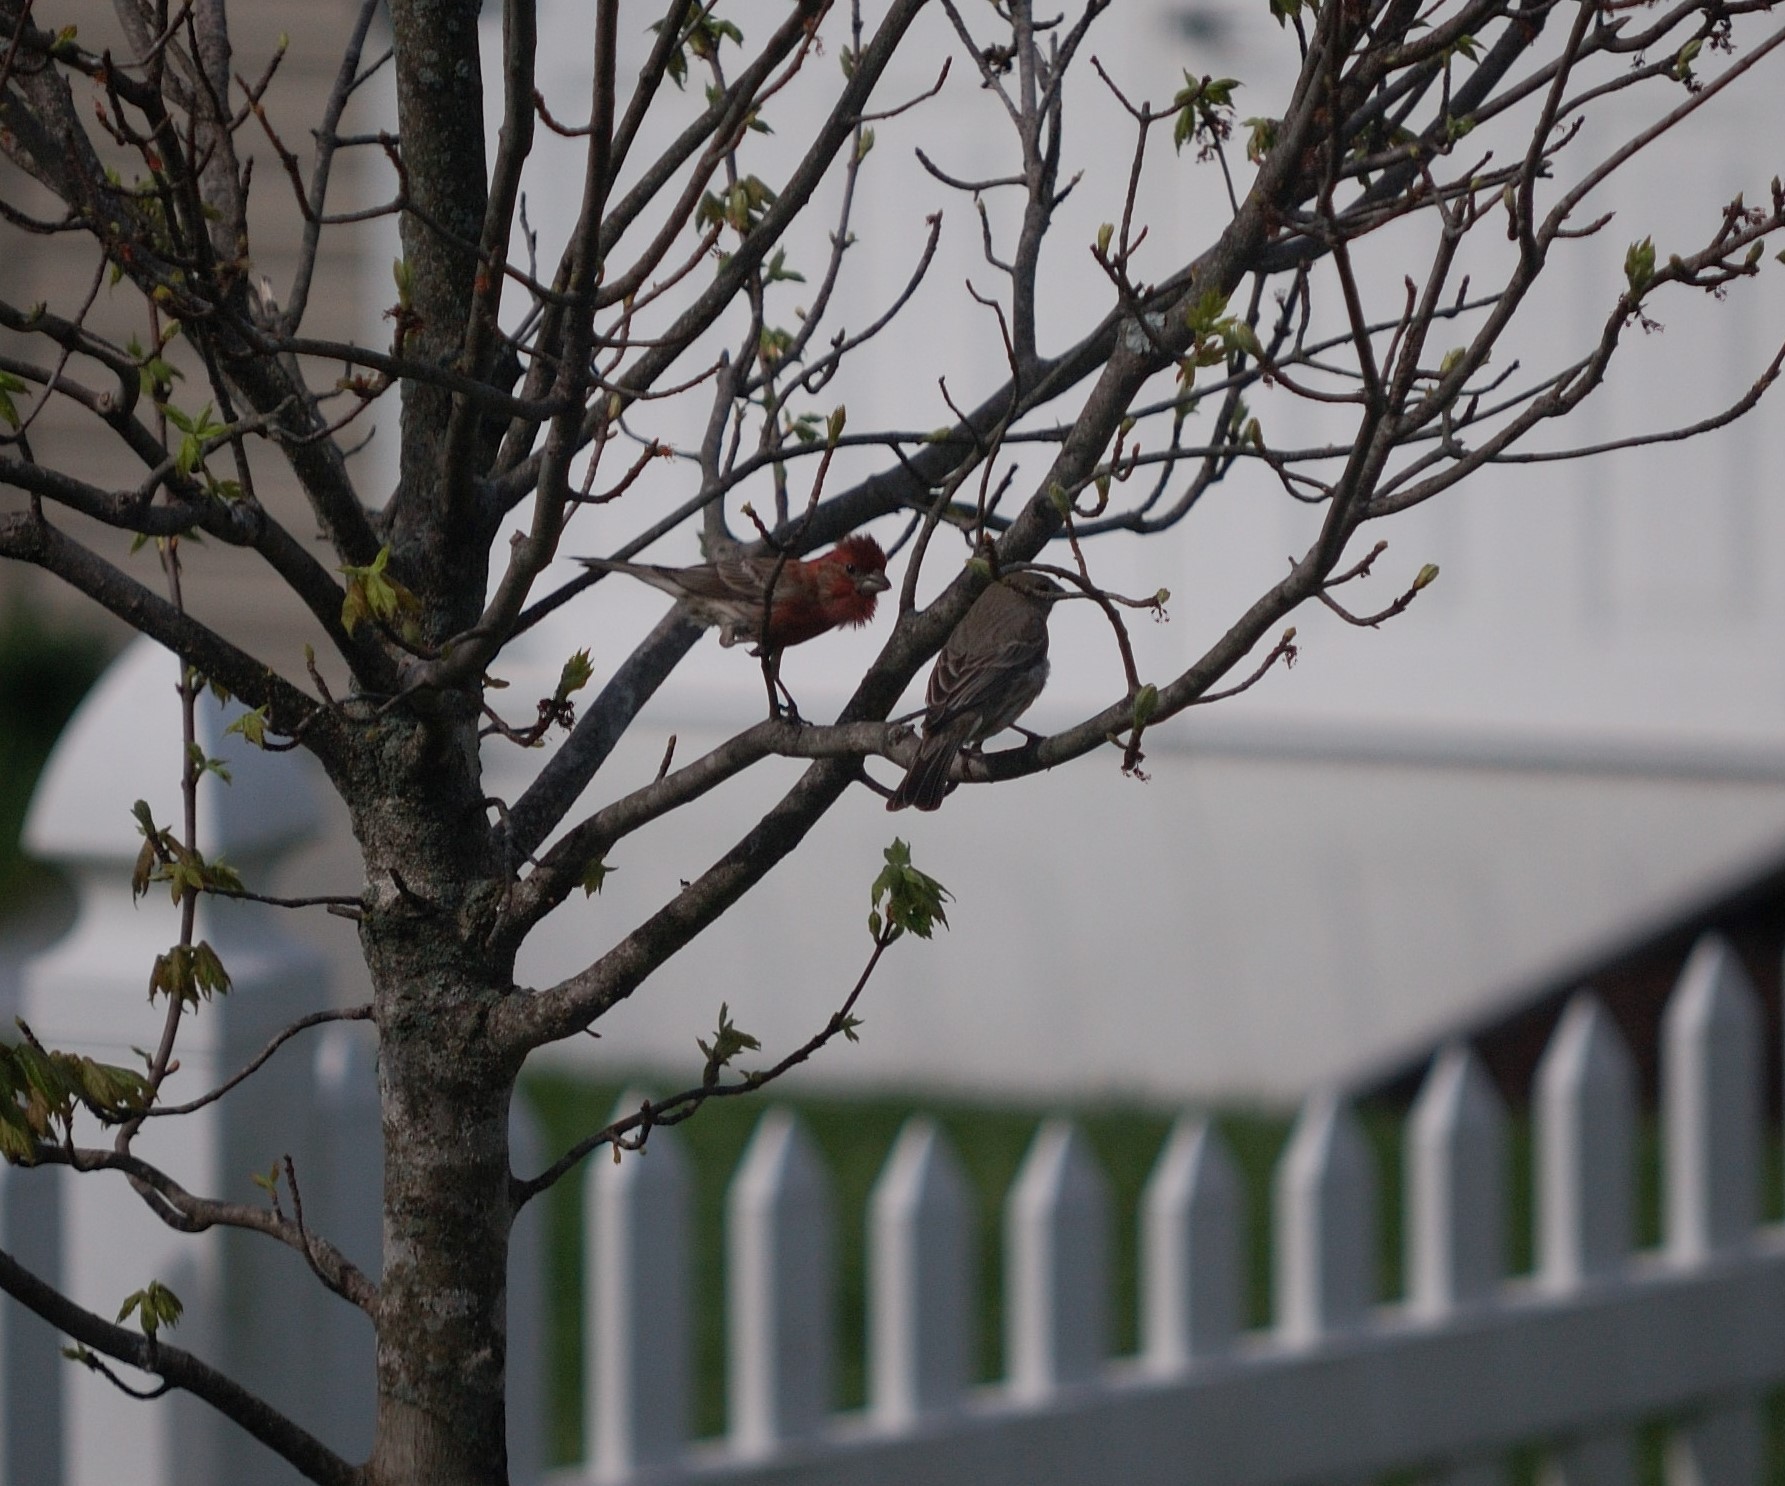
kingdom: Animalia
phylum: Chordata
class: Aves
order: Passeriformes
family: Fringillidae
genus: Haemorhous
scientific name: Haemorhous mexicanus
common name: House finch
